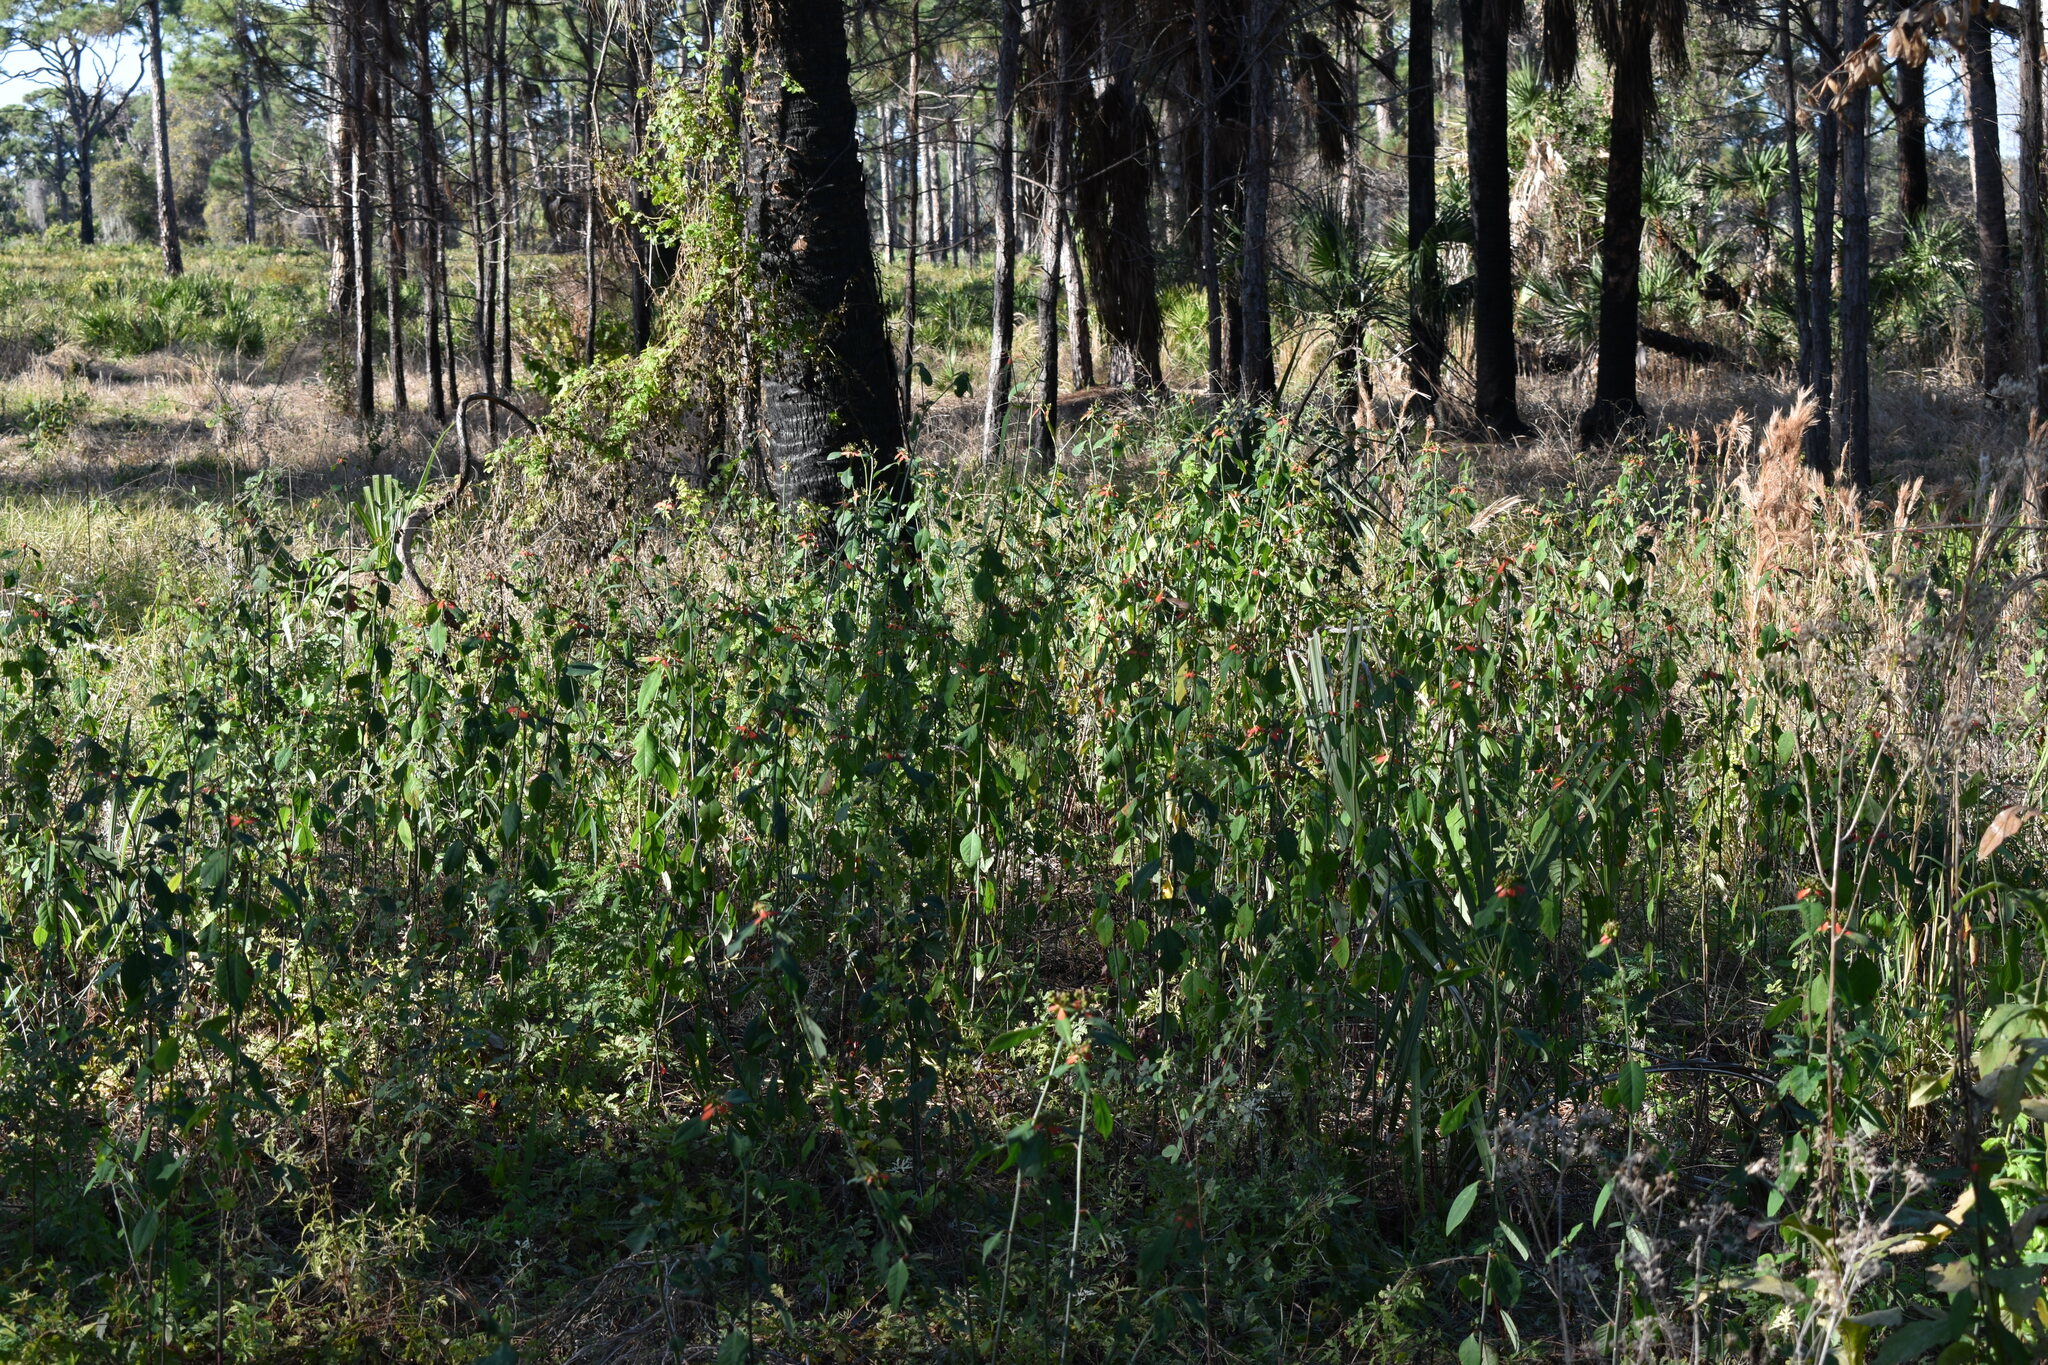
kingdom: Plantae
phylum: Tracheophyta
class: Magnoliopsida
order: Malpighiales
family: Euphorbiaceae
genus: Euphorbia
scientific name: Euphorbia heterophylla
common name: Mexican fireplant
